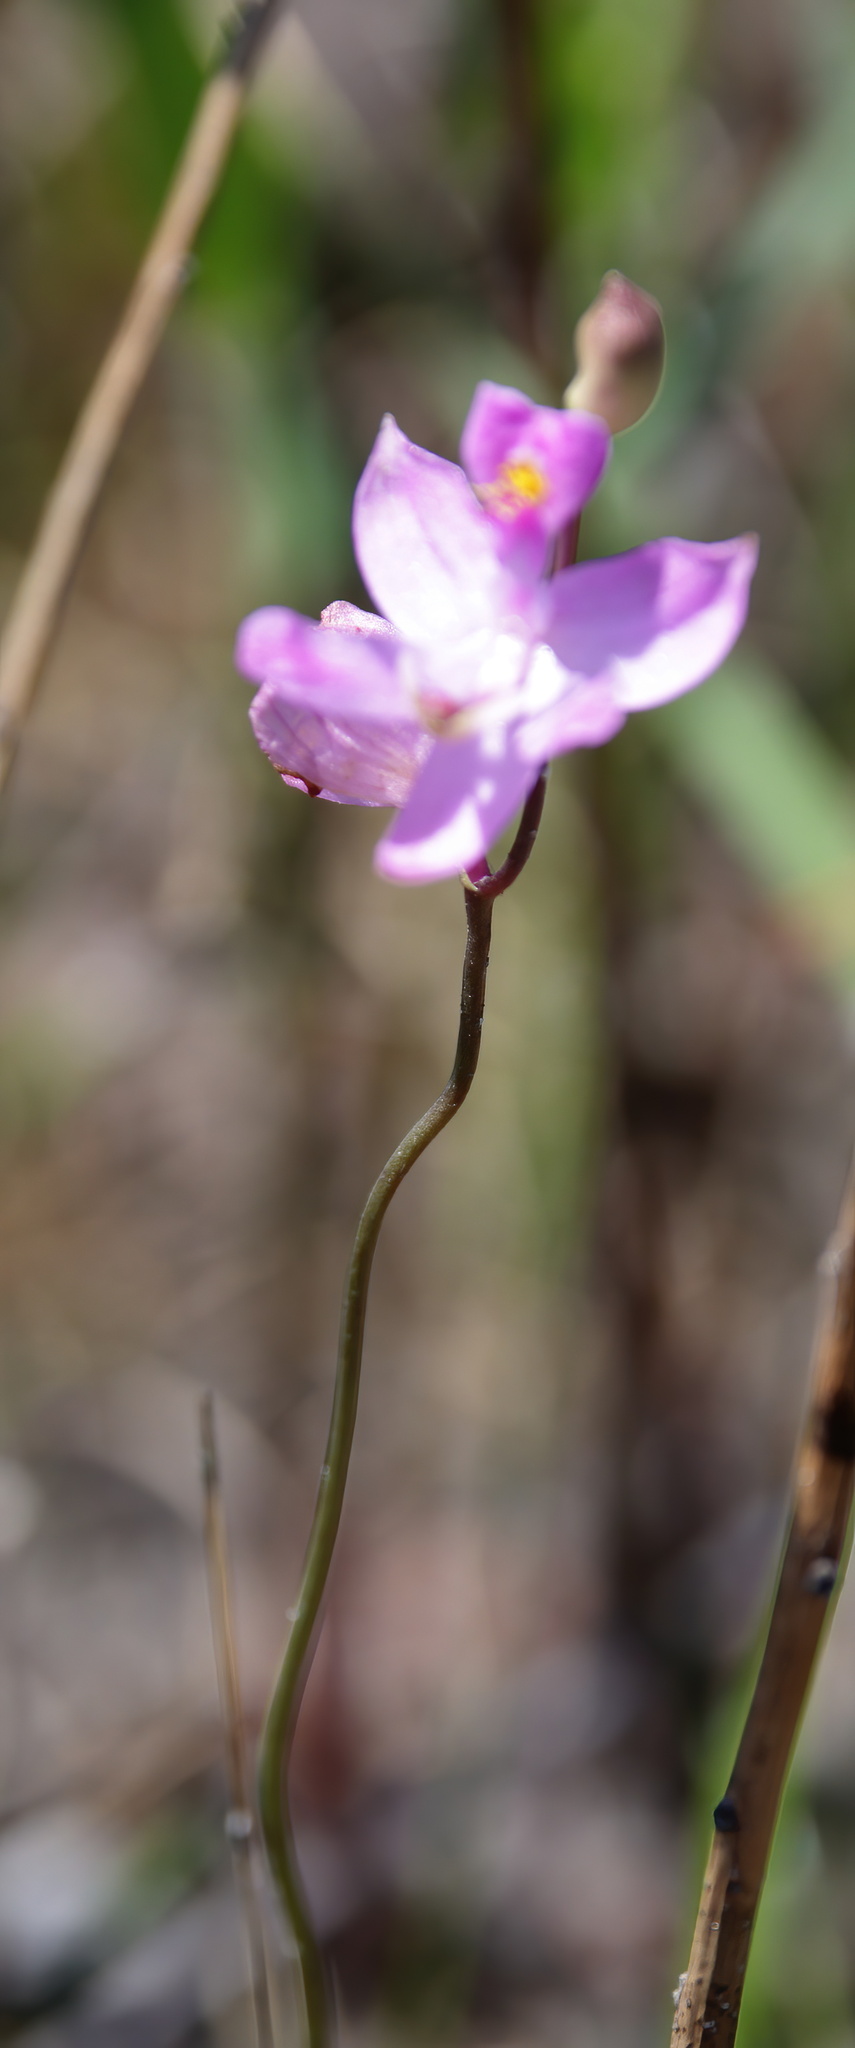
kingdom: Plantae
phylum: Tracheophyta
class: Liliopsida
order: Asparagales
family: Orchidaceae
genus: Calopogon
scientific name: Calopogon pallidus
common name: Pale grasspink
